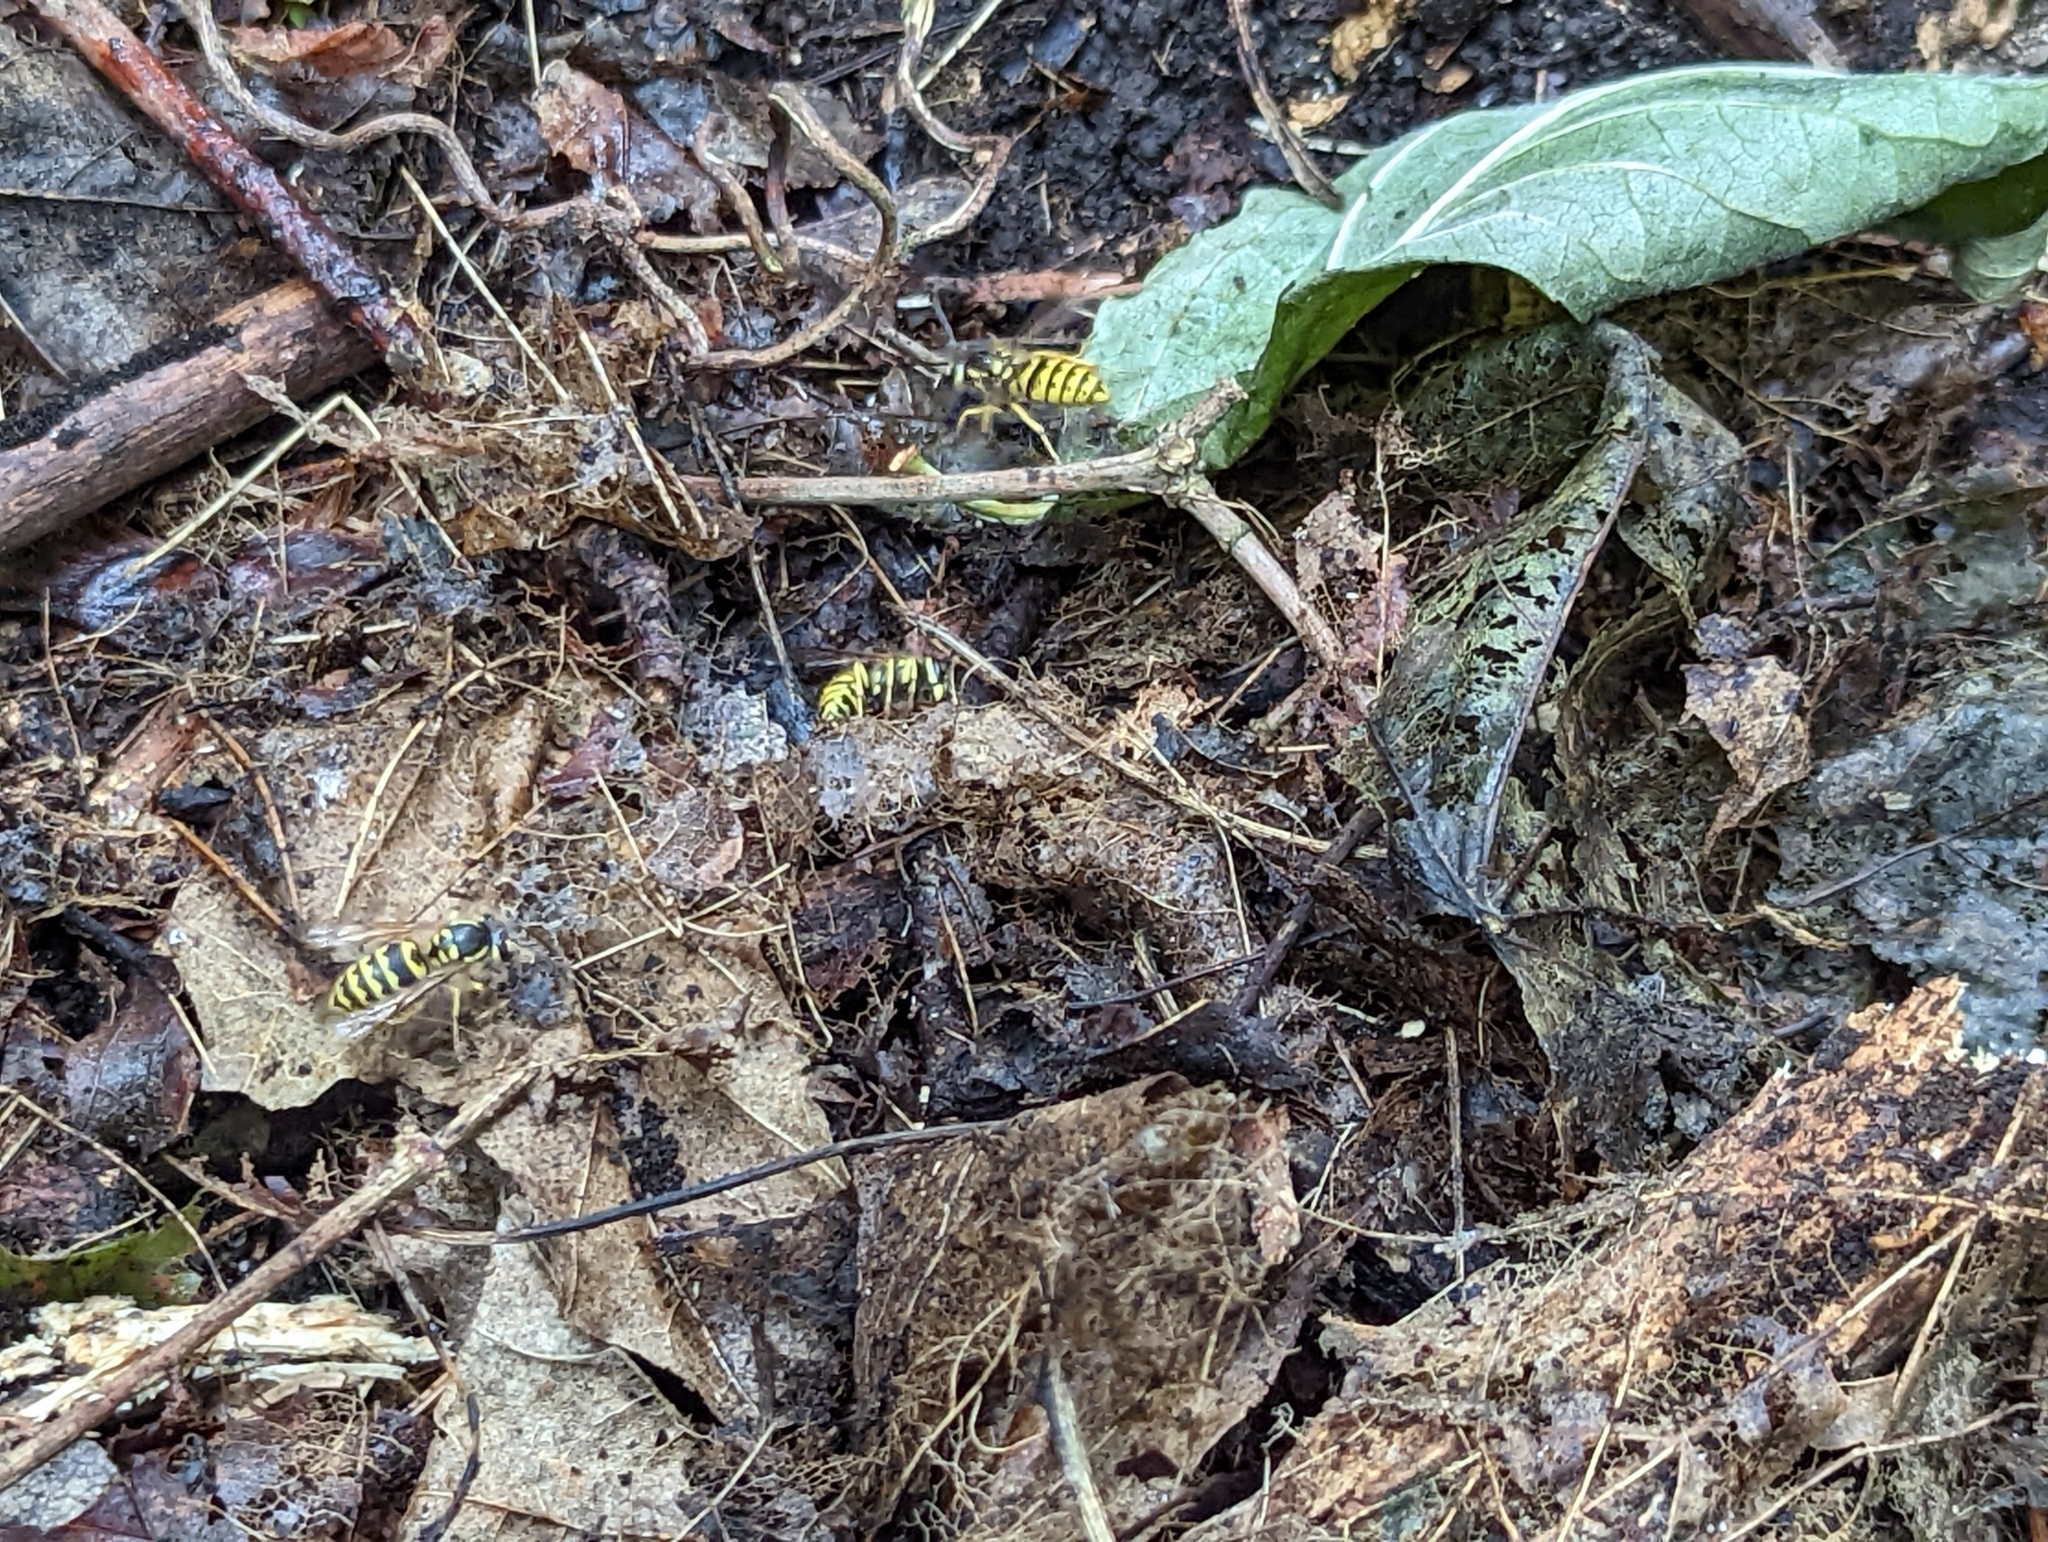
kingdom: Animalia
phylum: Arthropoda
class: Insecta
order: Hymenoptera
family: Vespidae
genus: Vespula
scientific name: Vespula flavopilosa
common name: Downy yellowjacket
